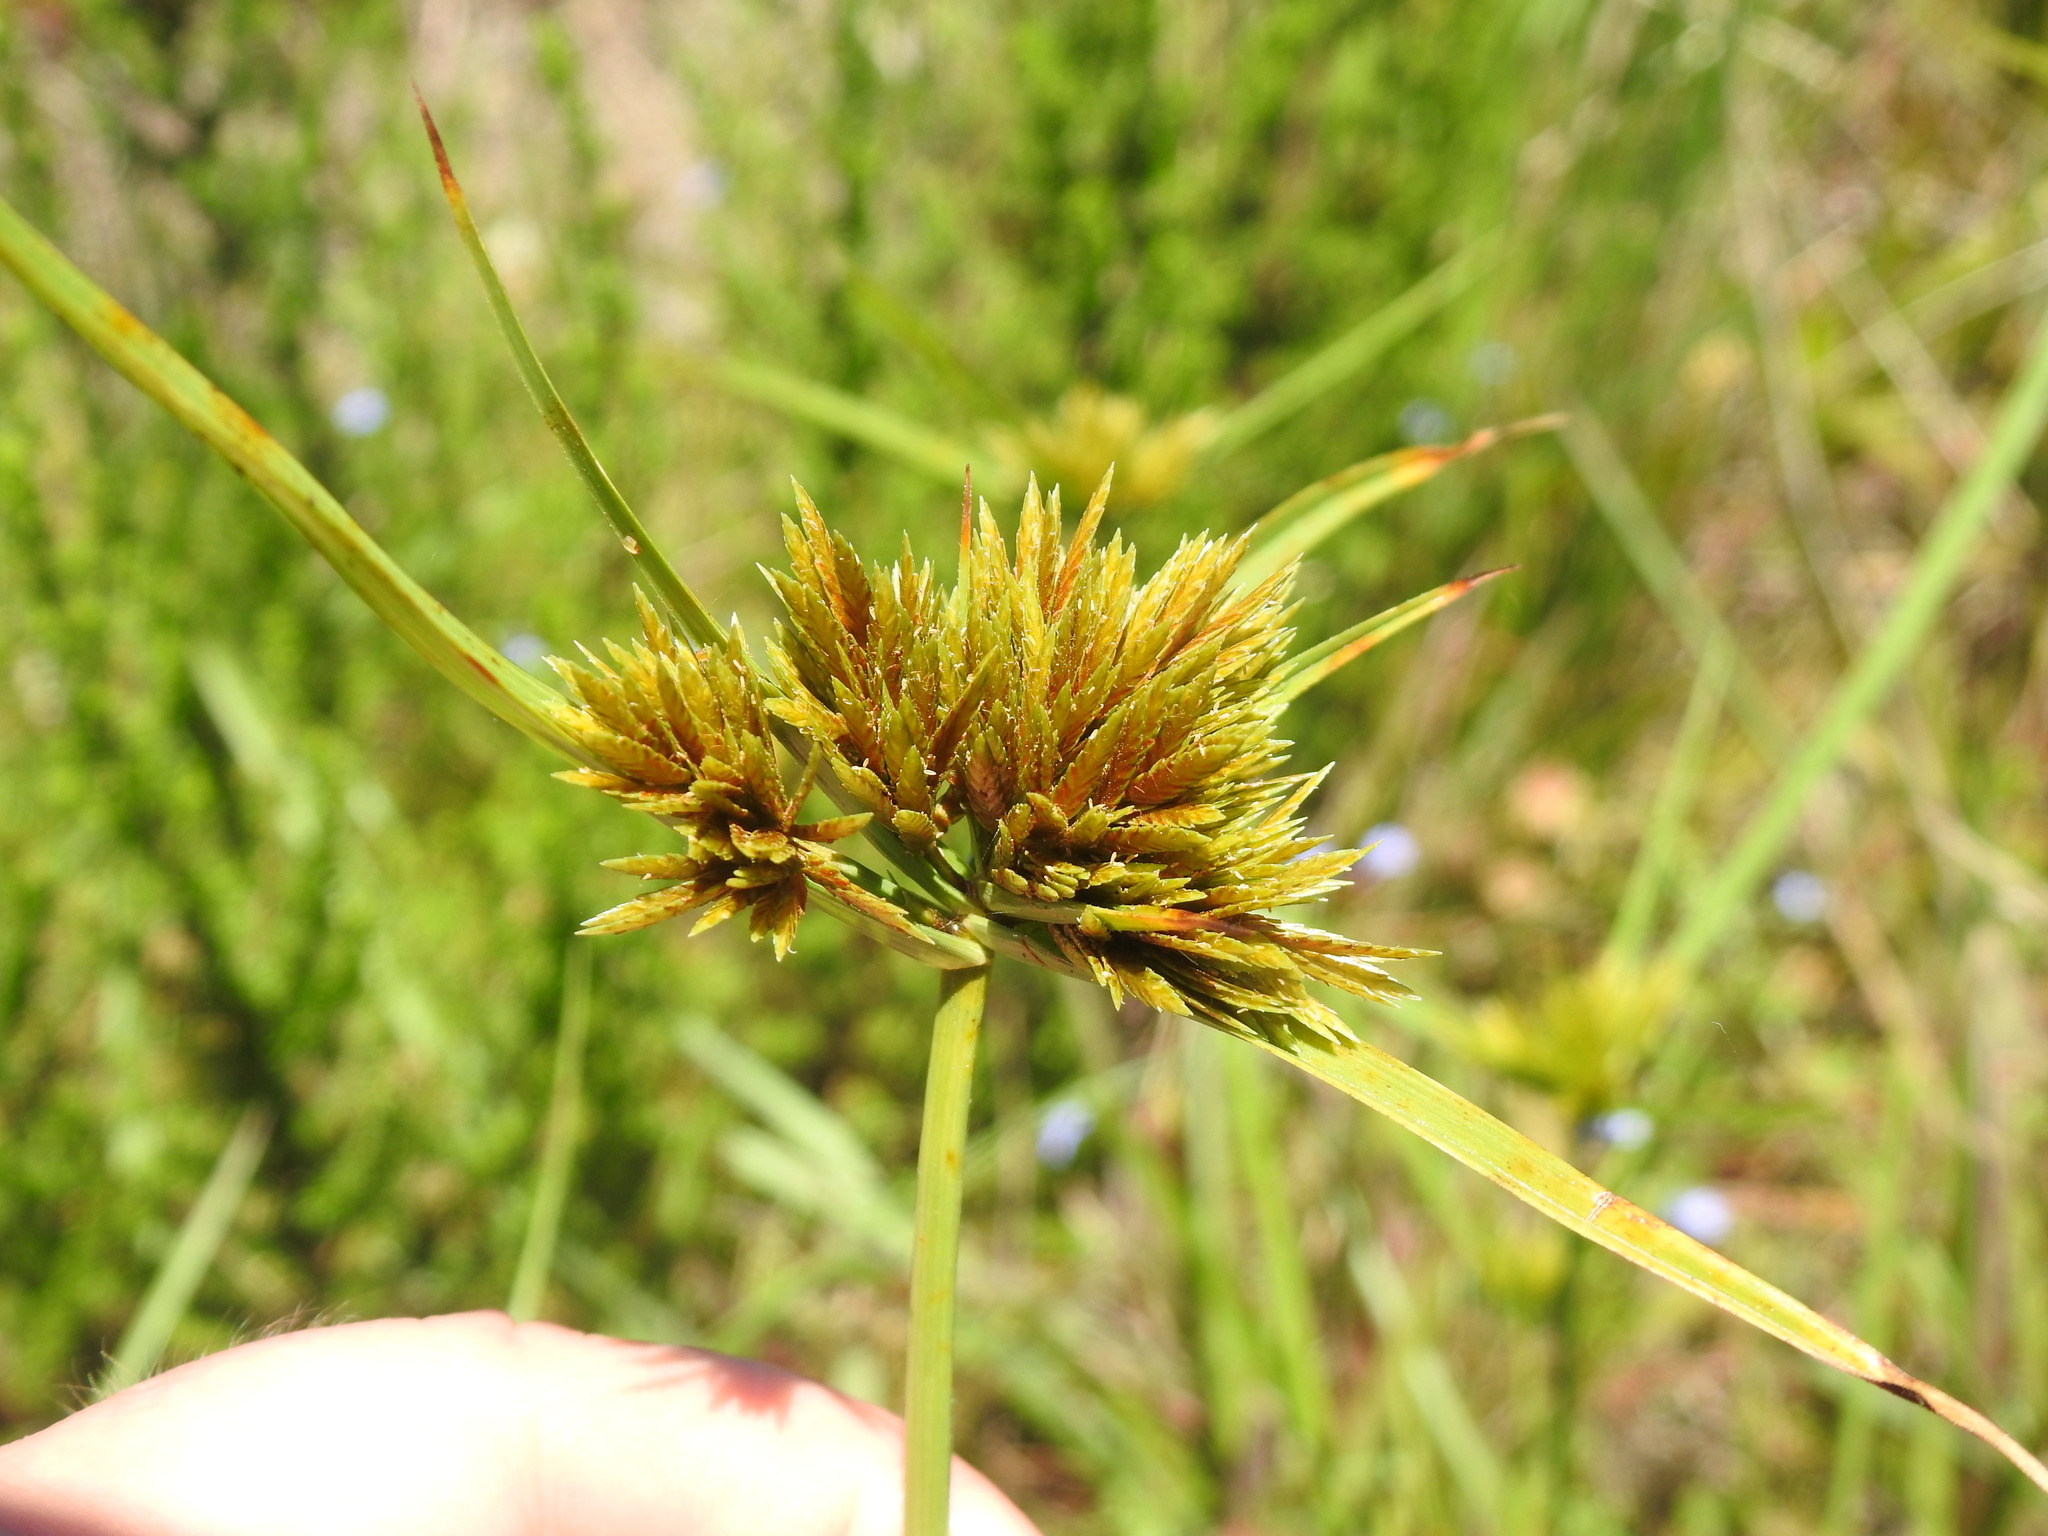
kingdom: Plantae
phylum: Tracheophyta
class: Liliopsida
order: Poales
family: Cyperaceae
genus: Cyperus
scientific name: Cyperus polystachyos
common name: Bunchy flat sedge
